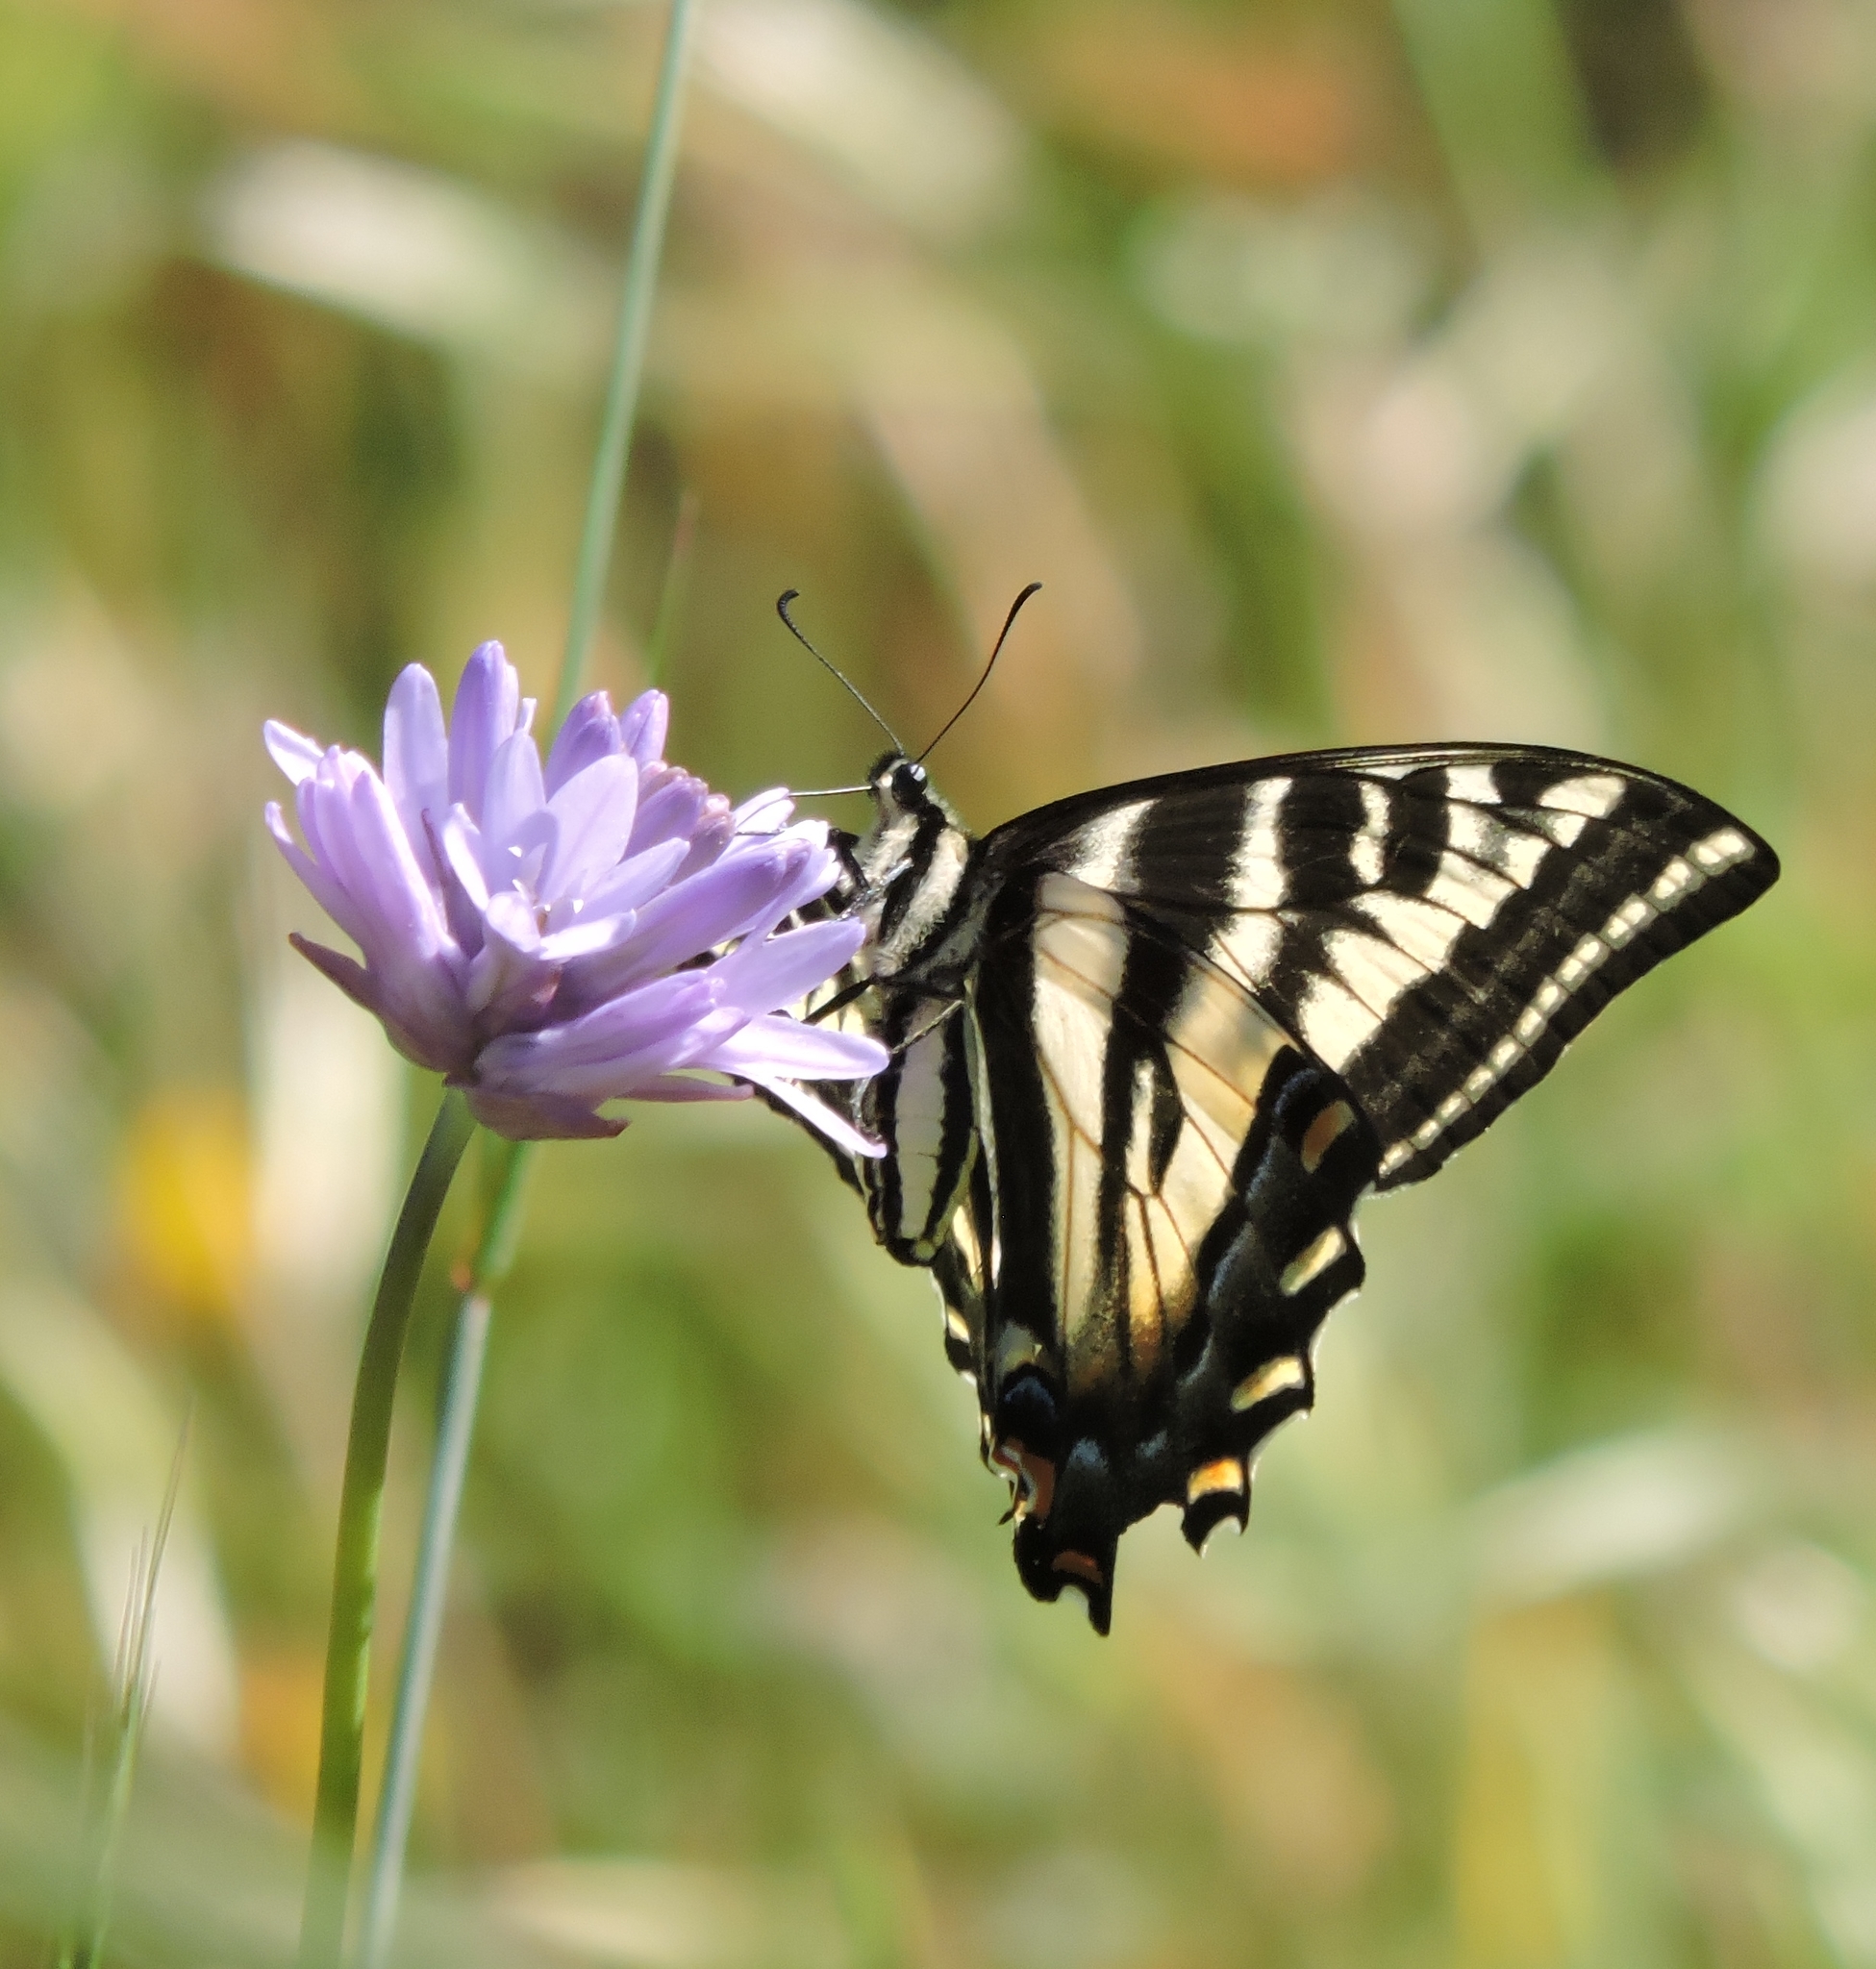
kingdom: Animalia
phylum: Arthropoda
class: Insecta
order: Lepidoptera
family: Papilionidae
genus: Papilio
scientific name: Papilio eurymedon
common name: Pale tiger swallowtail
